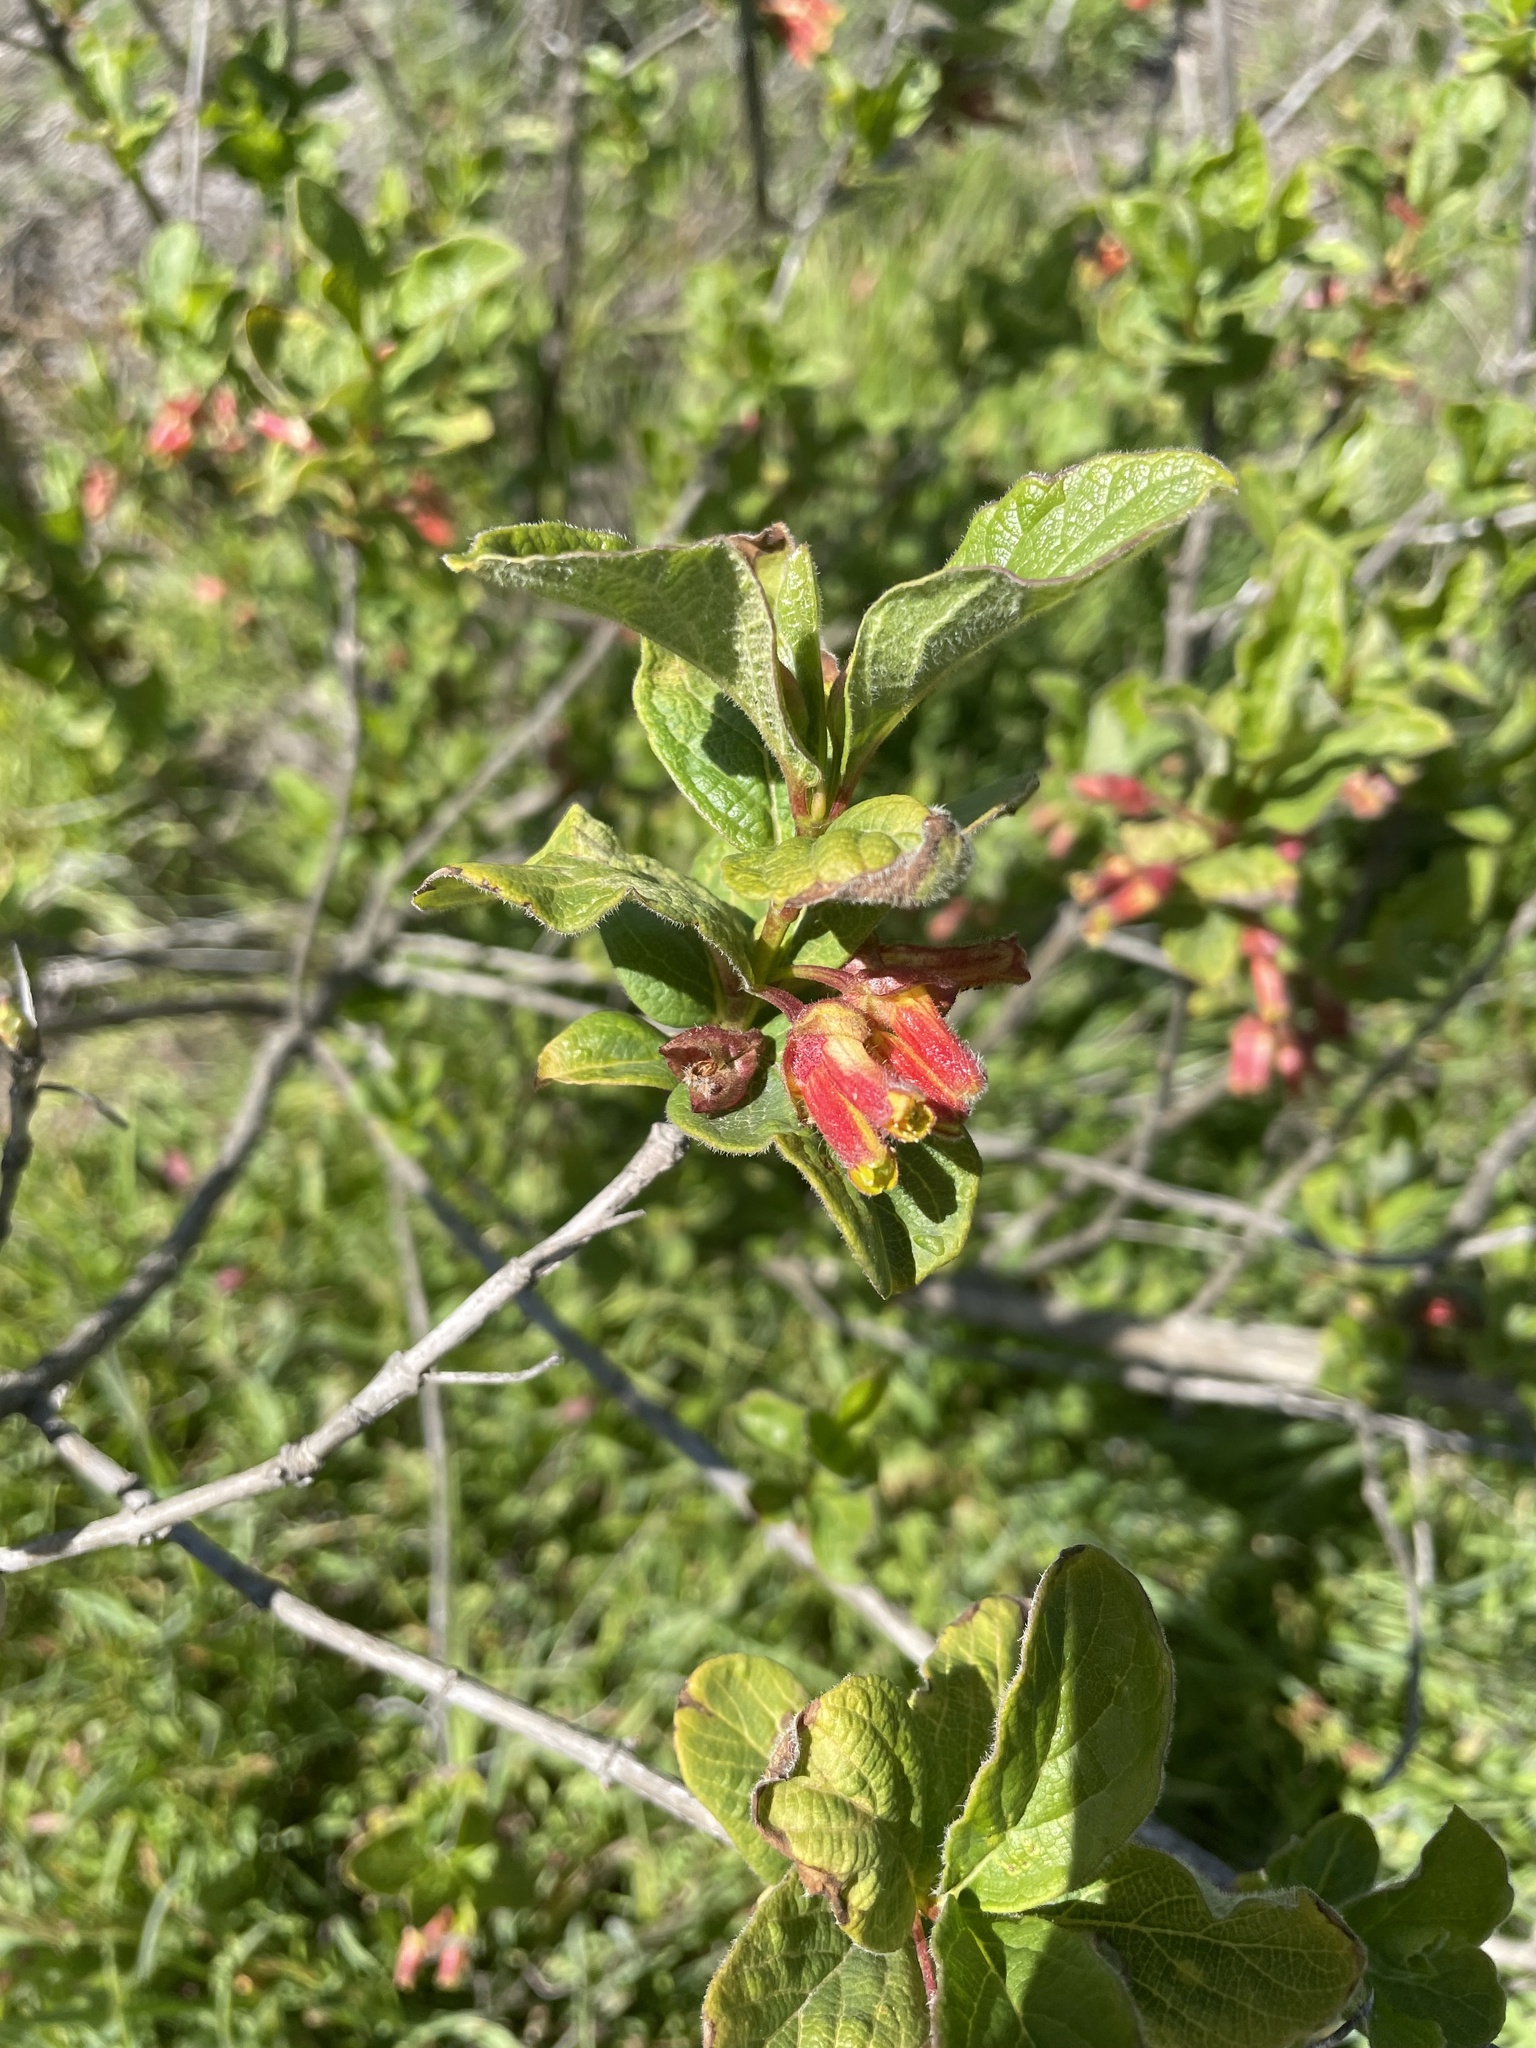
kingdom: Plantae
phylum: Tracheophyta
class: Magnoliopsida
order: Dipsacales
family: Caprifoliaceae
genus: Lonicera
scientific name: Lonicera involucrata
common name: Californian honeysuckle
